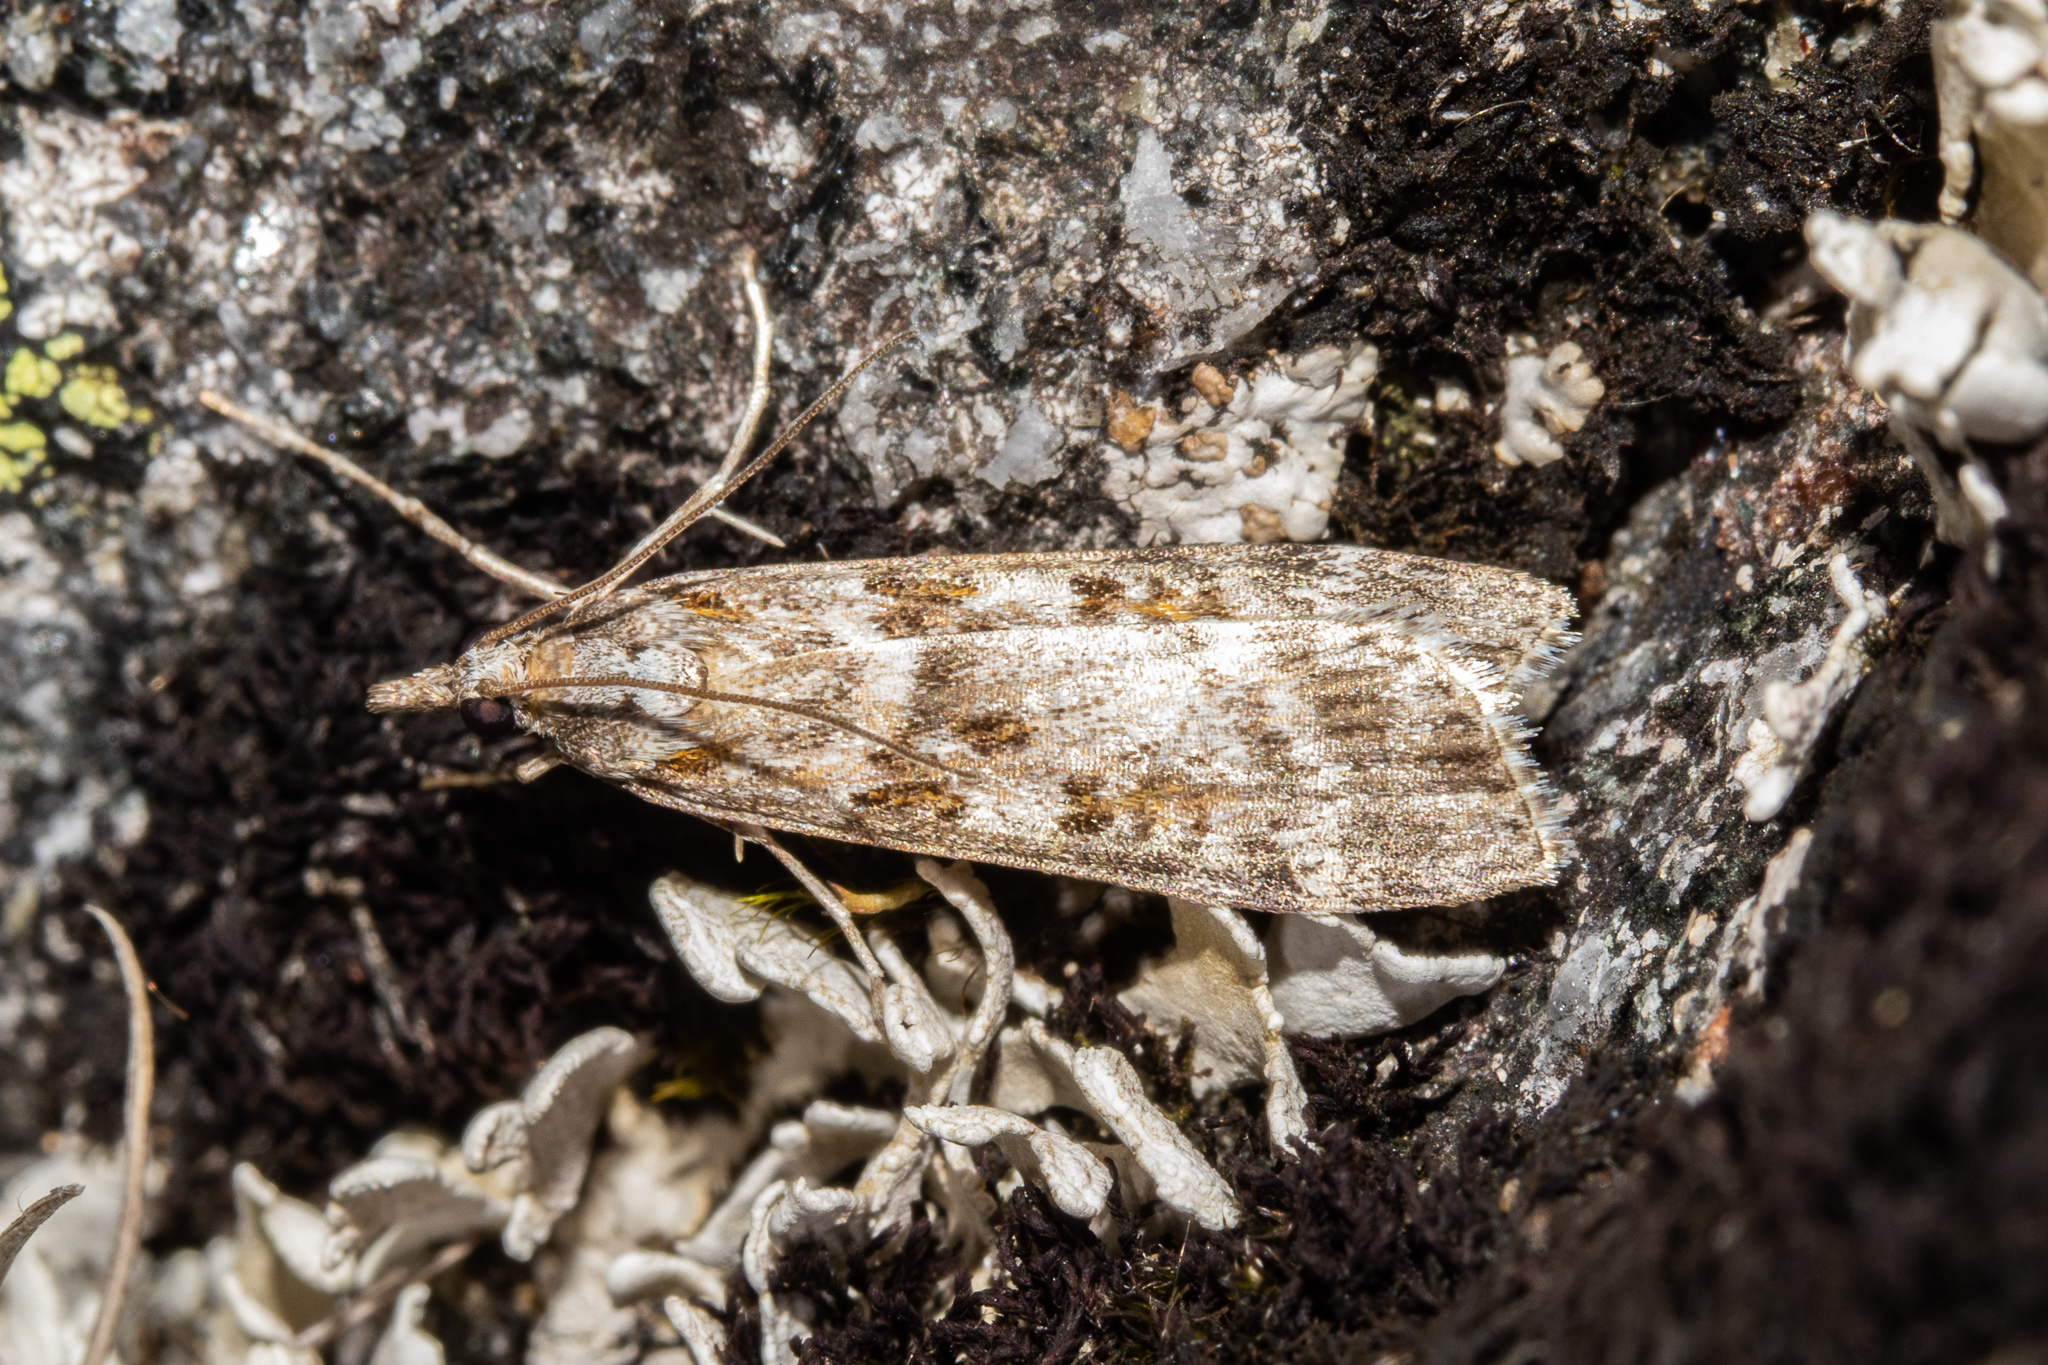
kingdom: Animalia
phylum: Arthropoda
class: Insecta
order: Lepidoptera
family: Crambidae
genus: Scoparia
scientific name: Scoparia petrina
